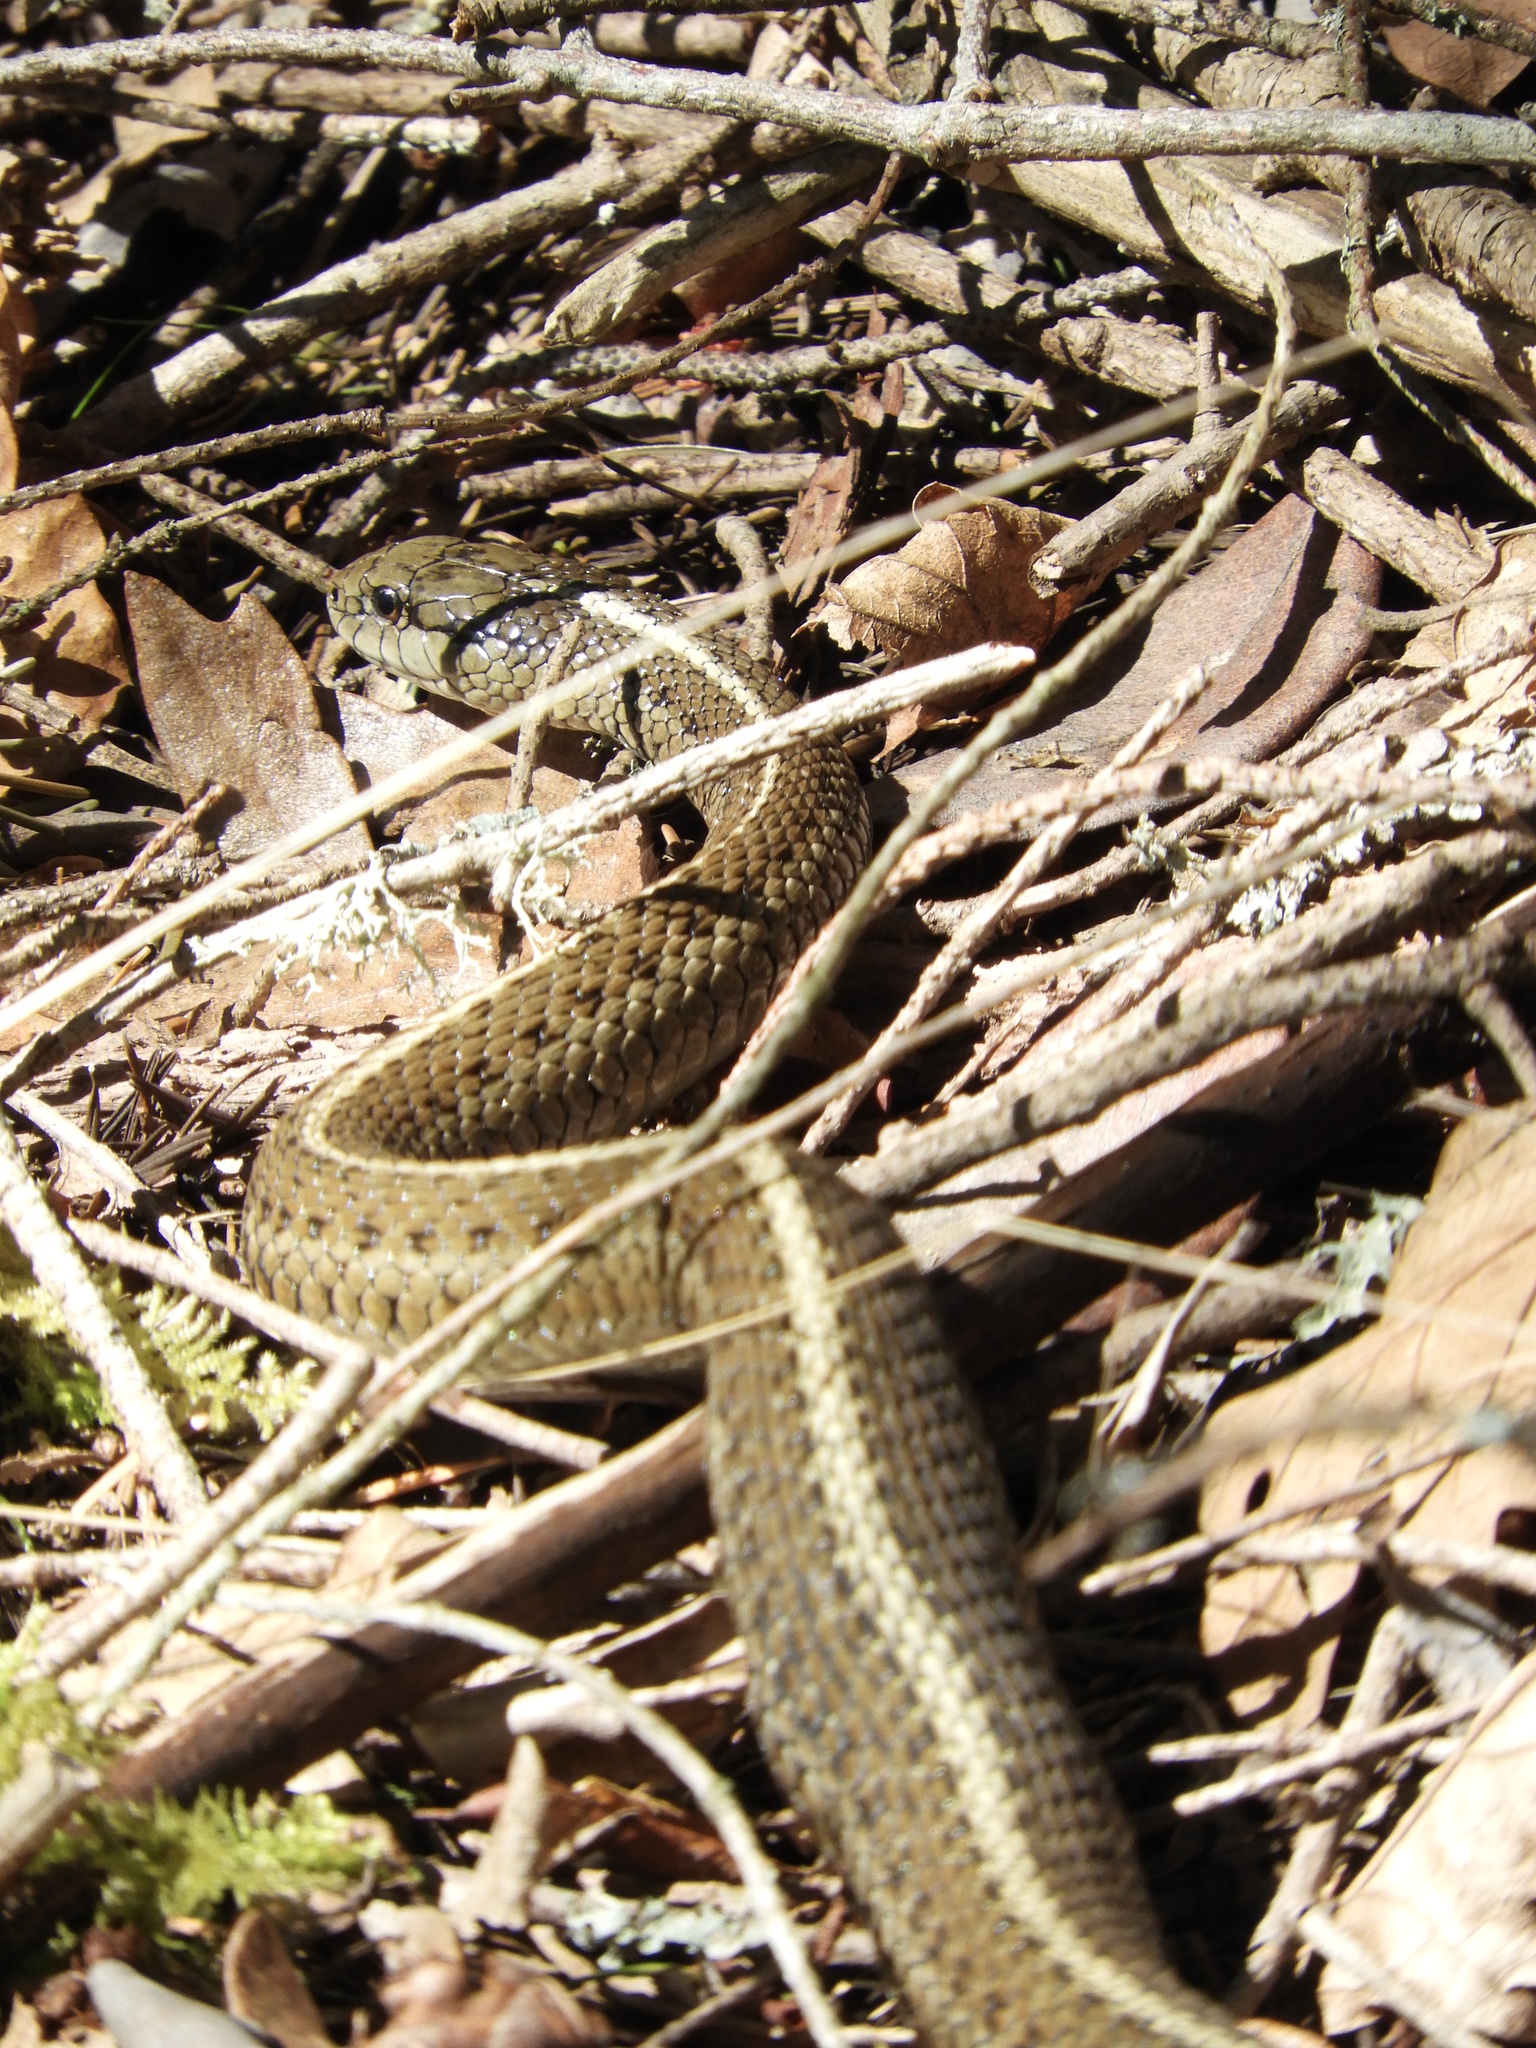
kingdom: Animalia
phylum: Chordata
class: Squamata
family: Colubridae
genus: Thamnophis
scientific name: Thamnophis ordinoides
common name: Northwestern garter snake
